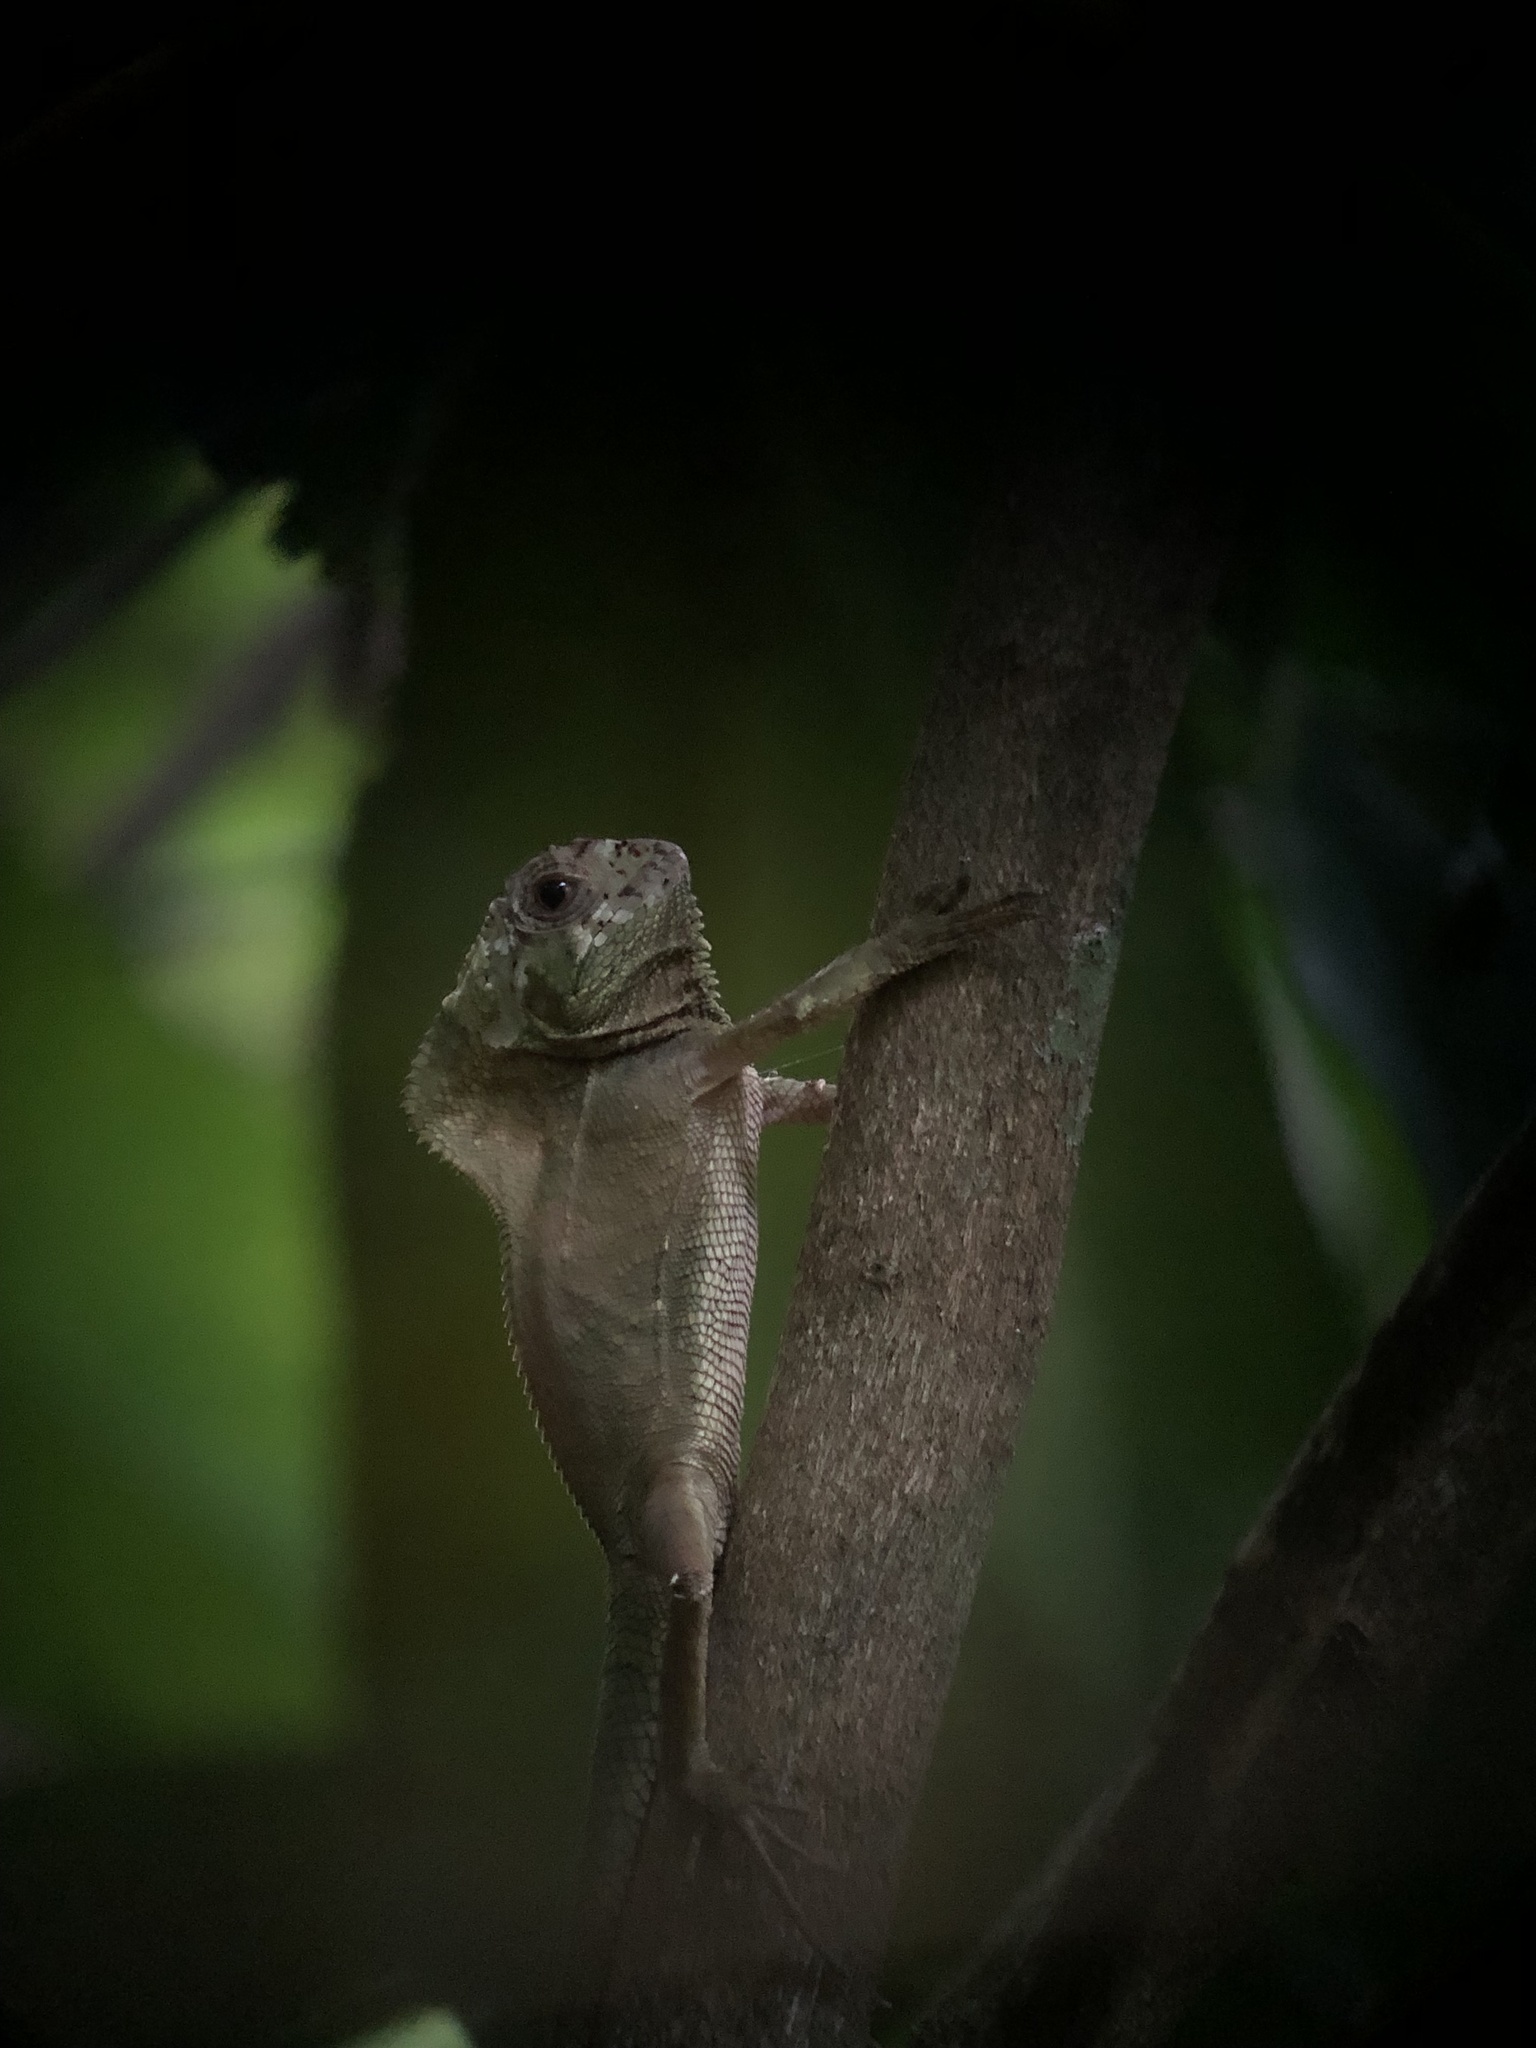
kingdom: Animalia
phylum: Chordata
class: Squamata
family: Corytophanidae
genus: Corytophanes
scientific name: Corytophanes cristatus
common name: Smooth helmeted iguana
